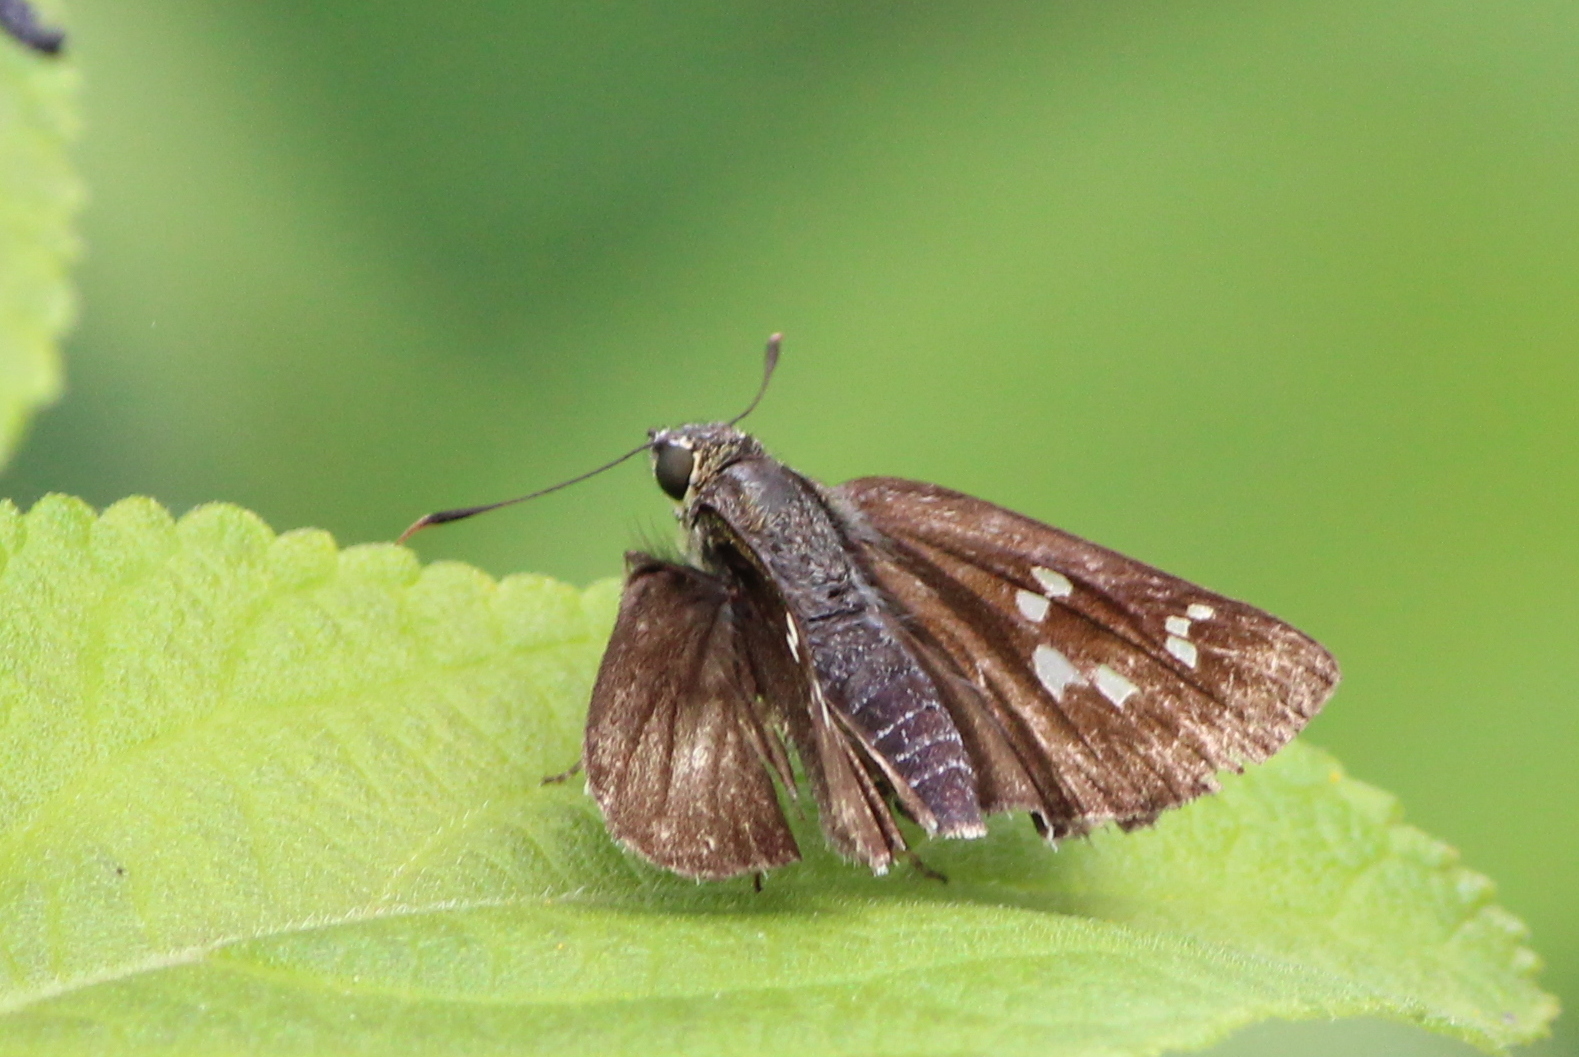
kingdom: Animalia
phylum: Arthropoda
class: Insecta
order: Lepidoptera
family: Hesperiidae
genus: Halpe
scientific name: Halpe porus
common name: Moore's ace
